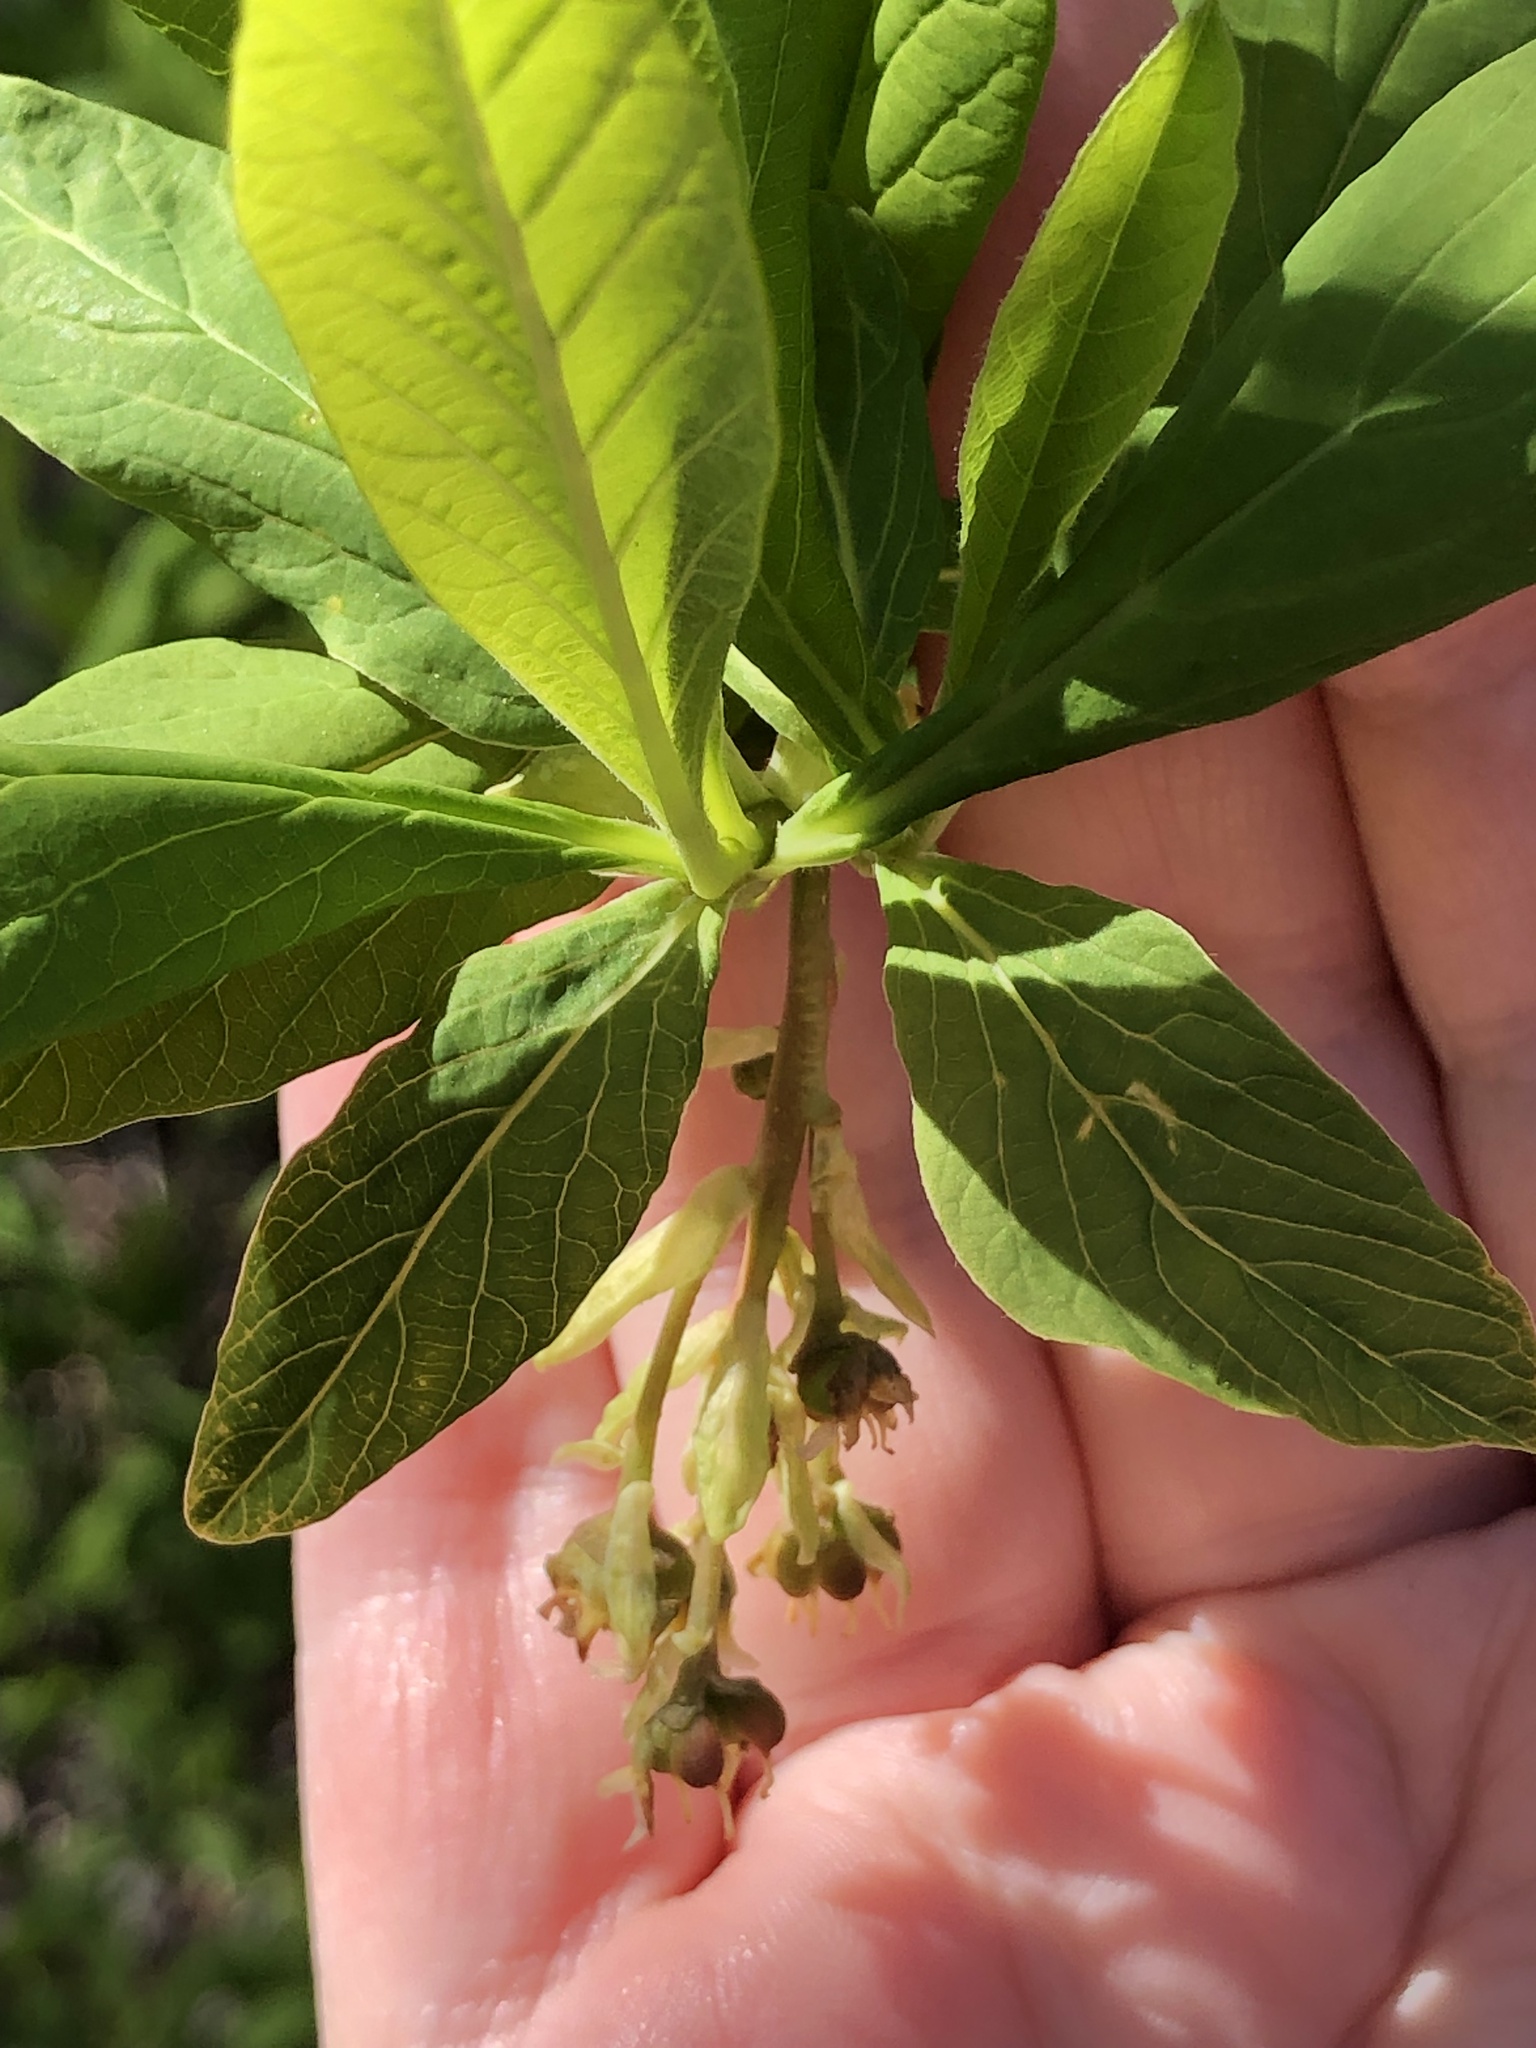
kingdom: Plantae
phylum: Tracheophyta
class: Magnoliopsida
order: Rosales
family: Rosaceae
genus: Oemleria
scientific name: Oemleria cerasiformis
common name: Osoberry
